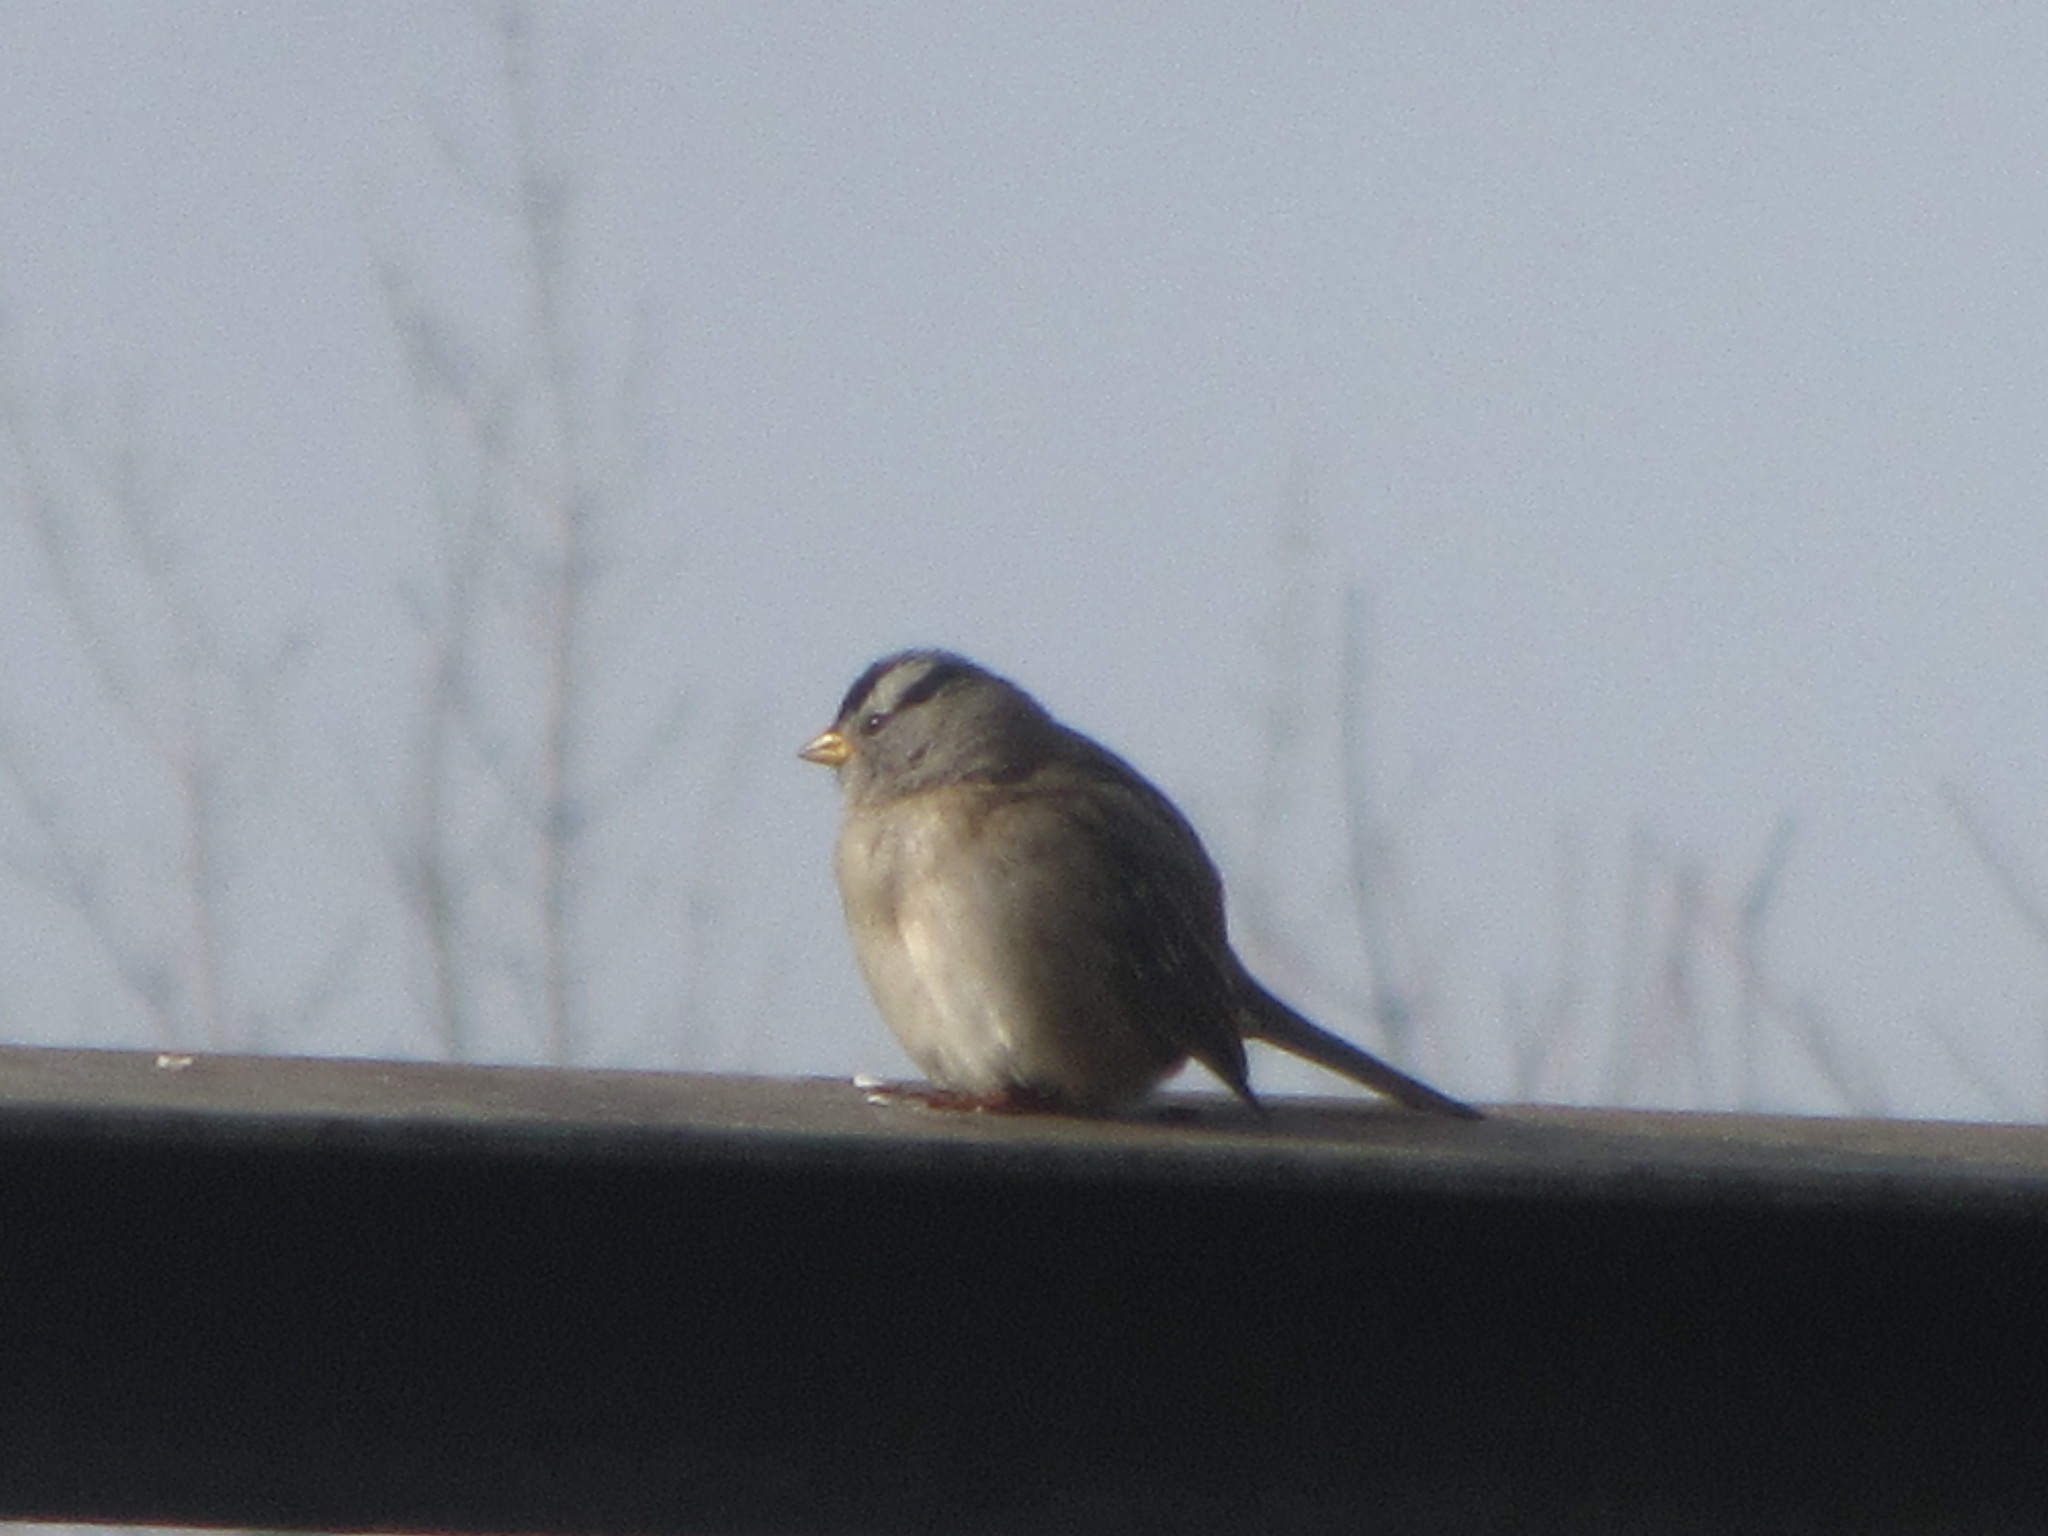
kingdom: Animalia
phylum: Chordata
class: Aves
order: Passeriformes
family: Passerellidae
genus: Zonotrichia
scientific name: Zonotrichia leucophrys
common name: White-crowned sparrow
